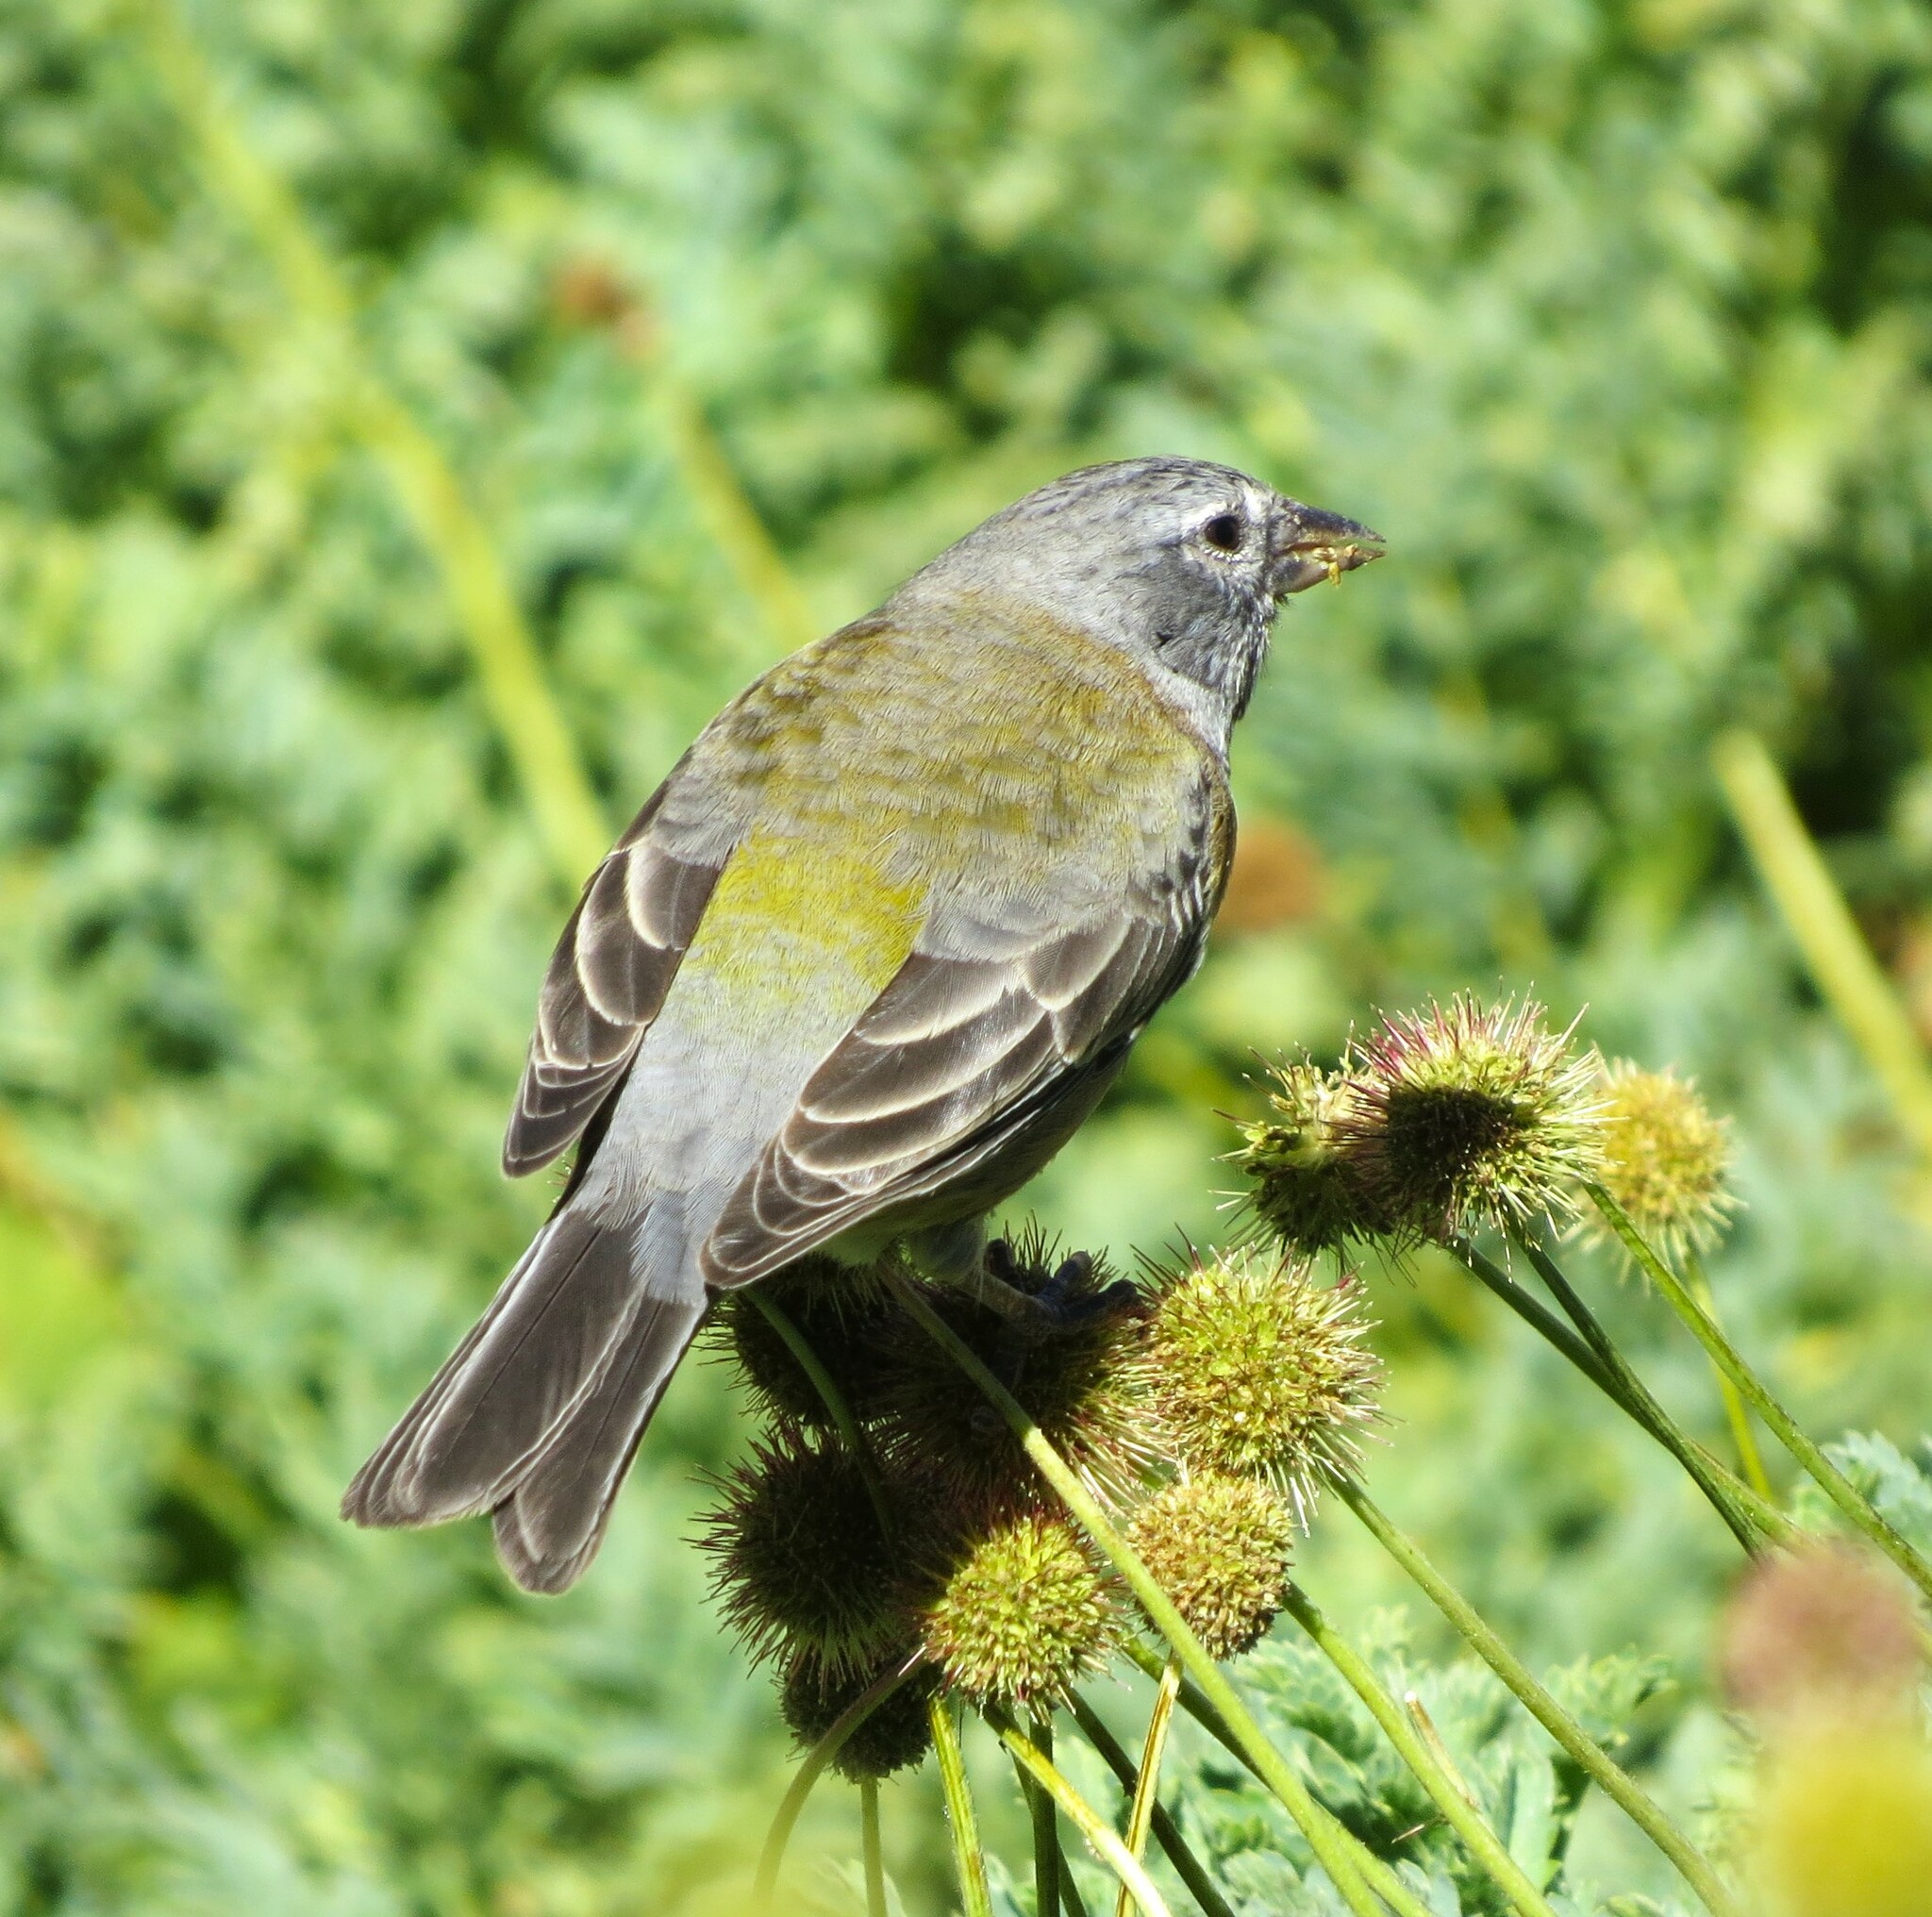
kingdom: Animalia
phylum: Chordata
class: Aves
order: Passeriformes
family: Thraupidae
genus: Phrygilus
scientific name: Phrygilus gayi
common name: Grey-hooded sierra finch
